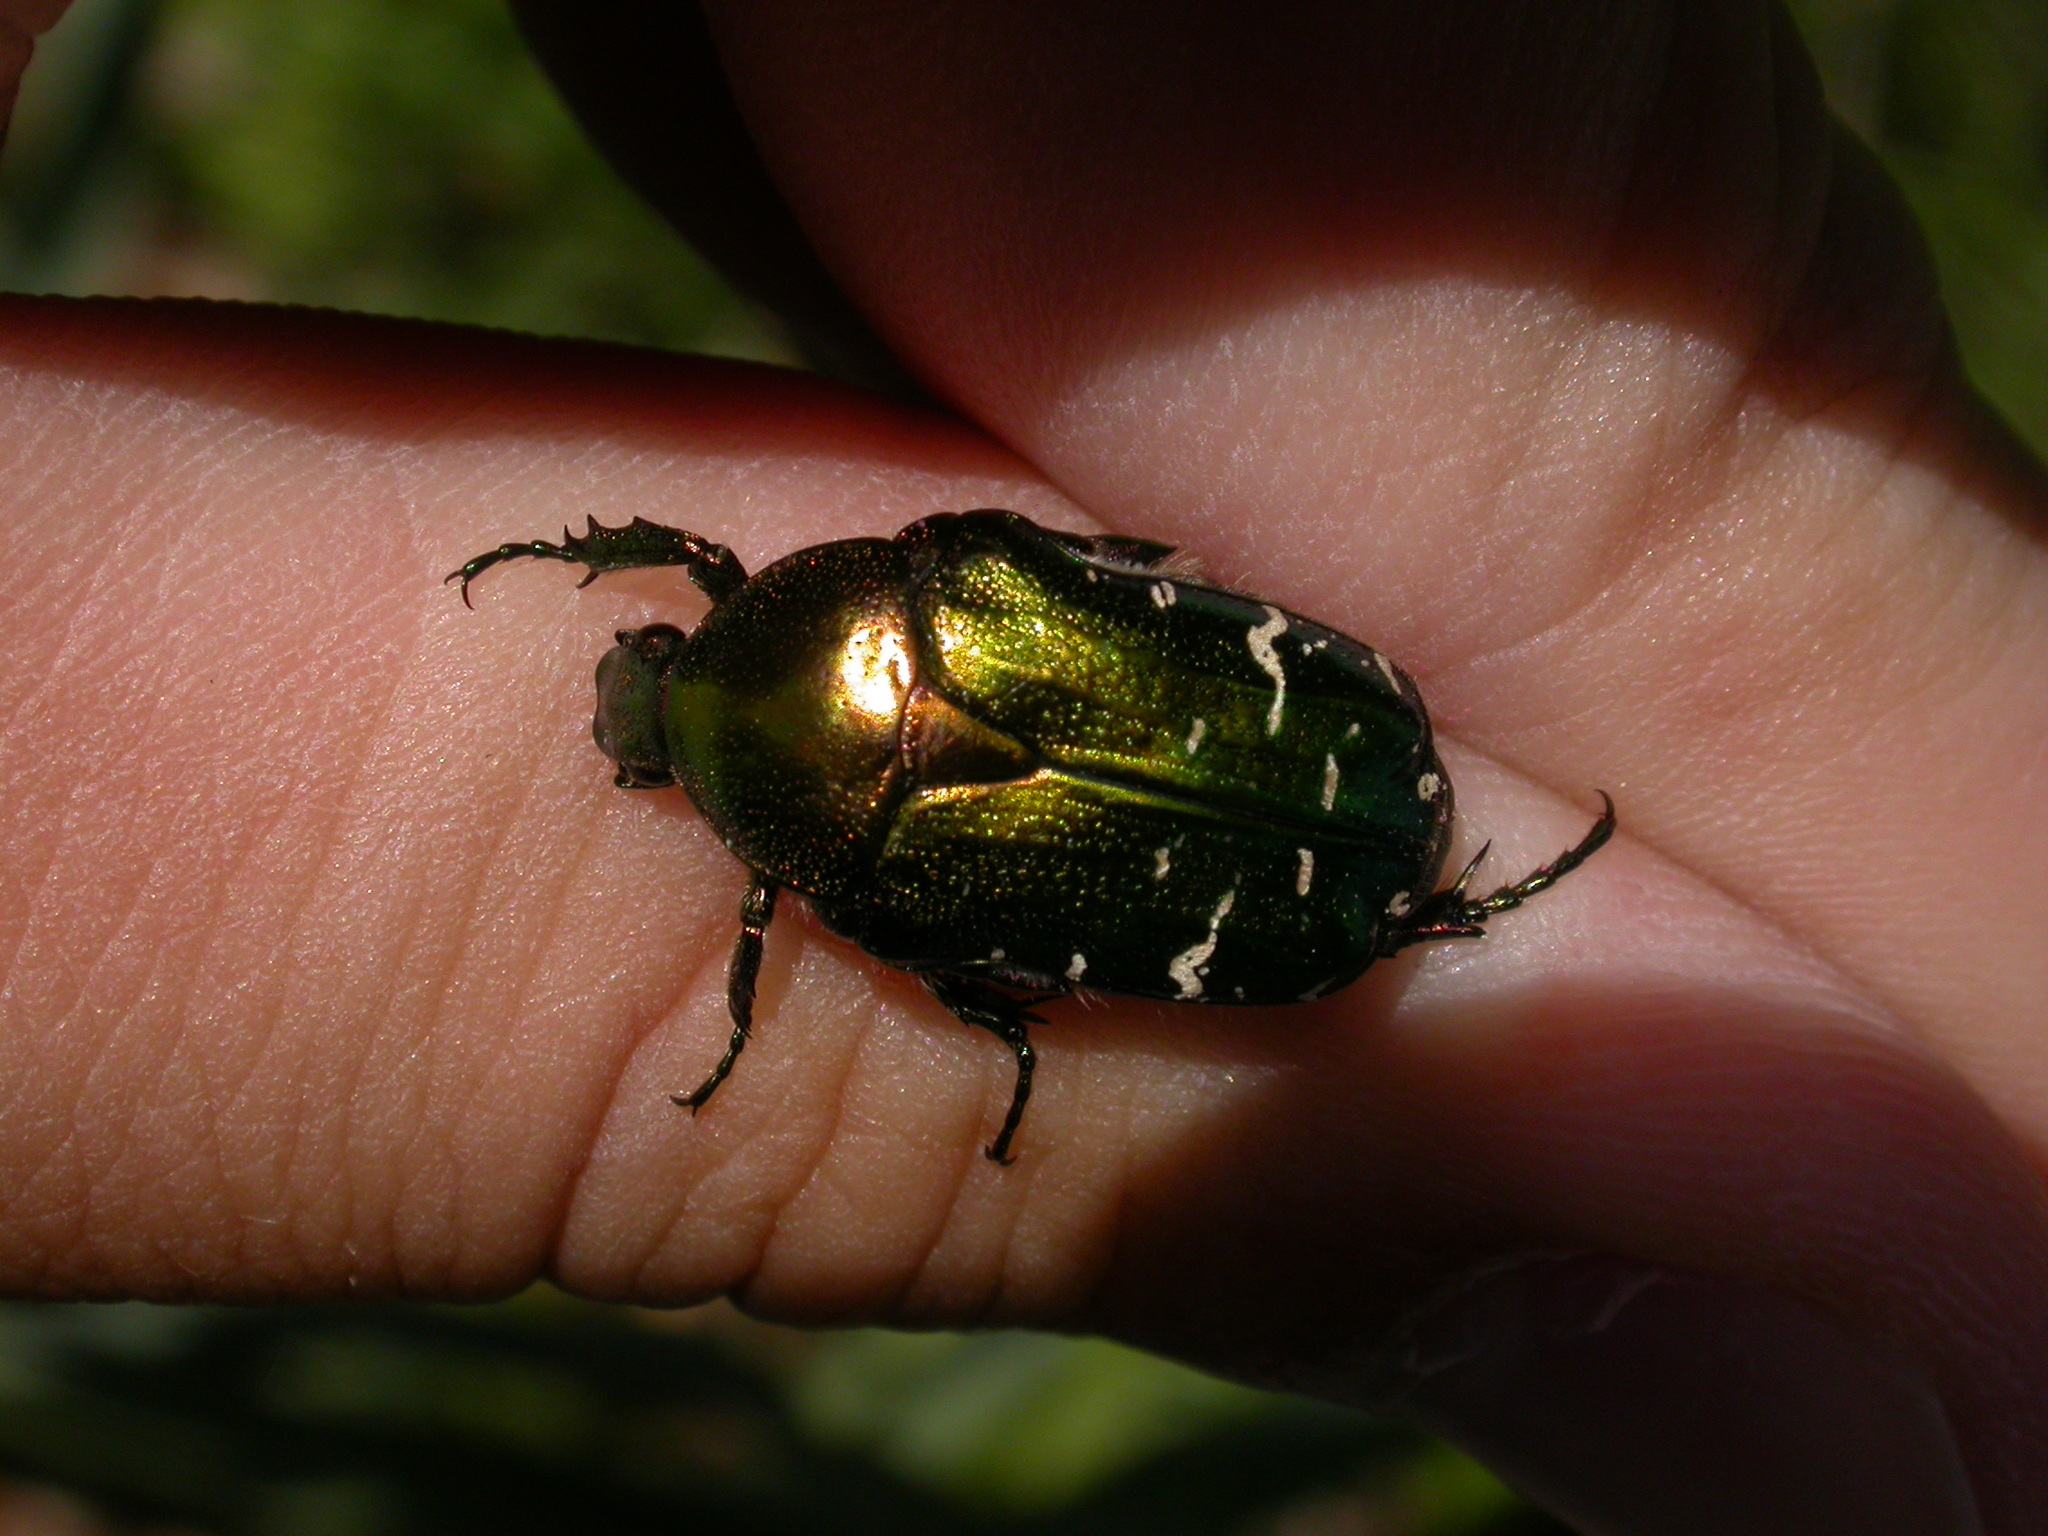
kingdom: Animalia
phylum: Arthropoda
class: Insecta
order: Coleoptera
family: Scarabaeidae
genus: Cetonia
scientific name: Cetonia aurata
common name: Rose chafer
